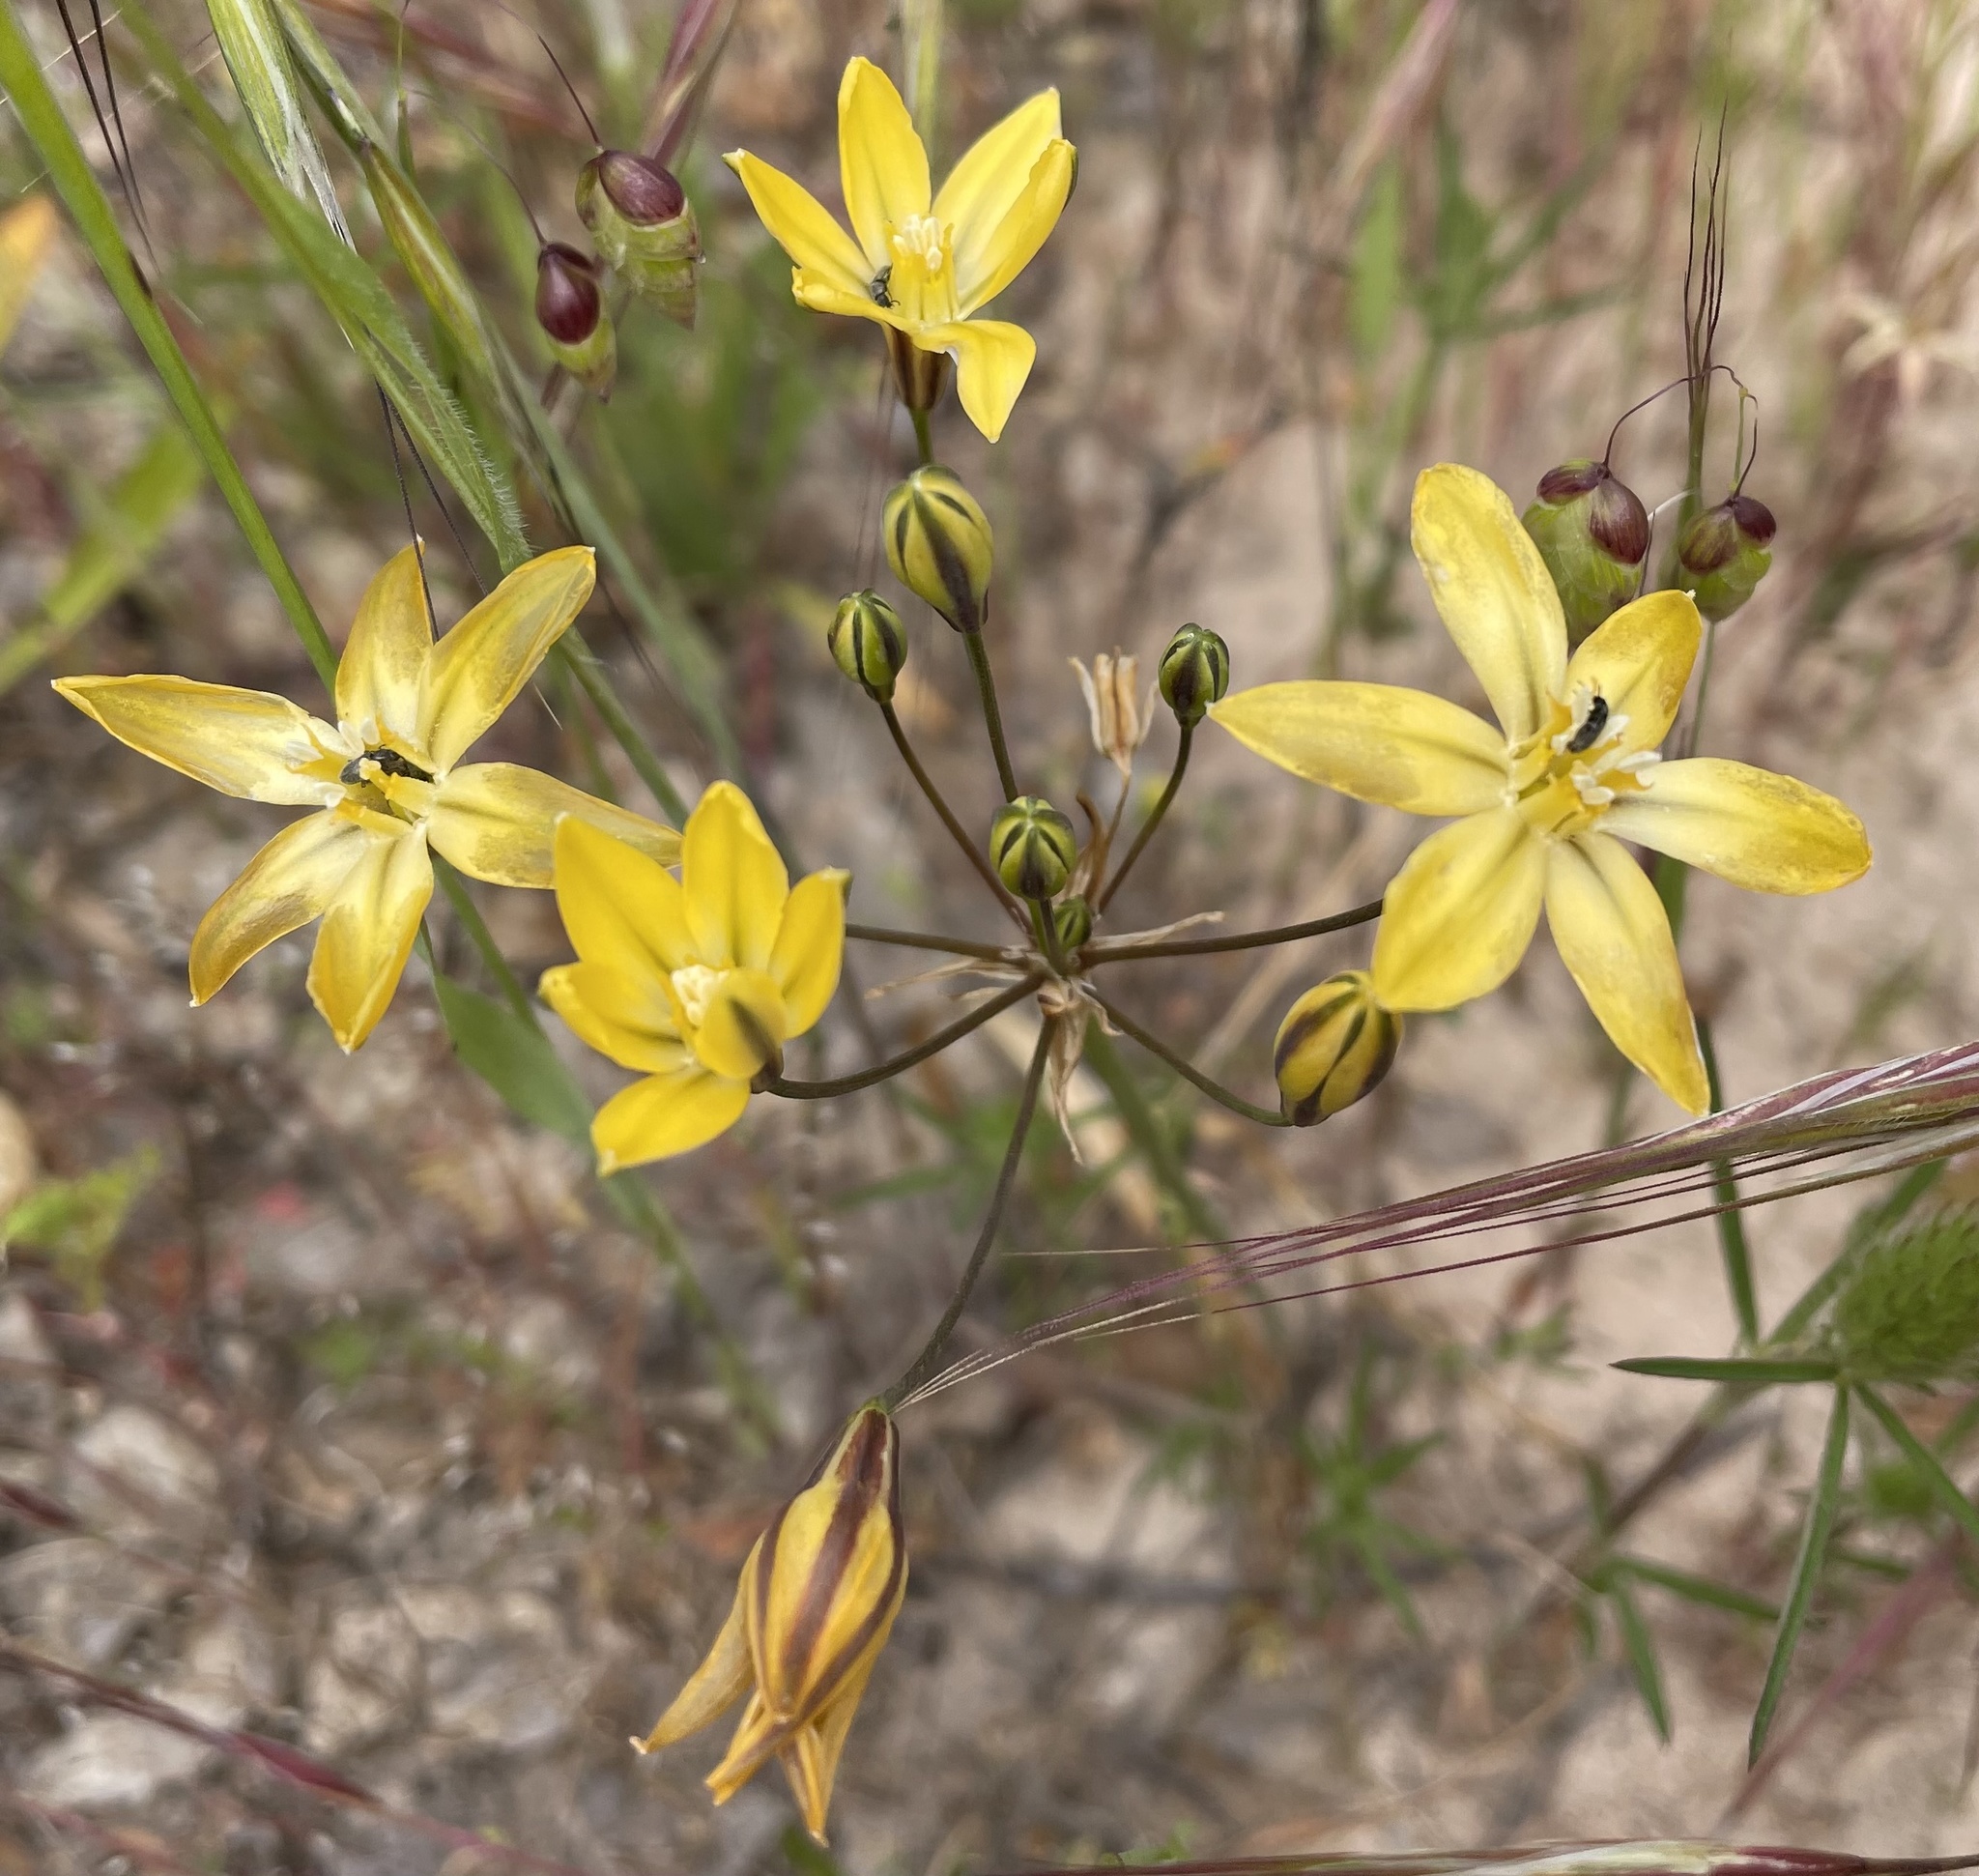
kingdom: Plantae
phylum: Tracheophyta
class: Liliopsida
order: Asparagales
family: Asparagaceae
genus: Triteleia
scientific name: Triteleia ixioides
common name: Yellow-brodiaea
